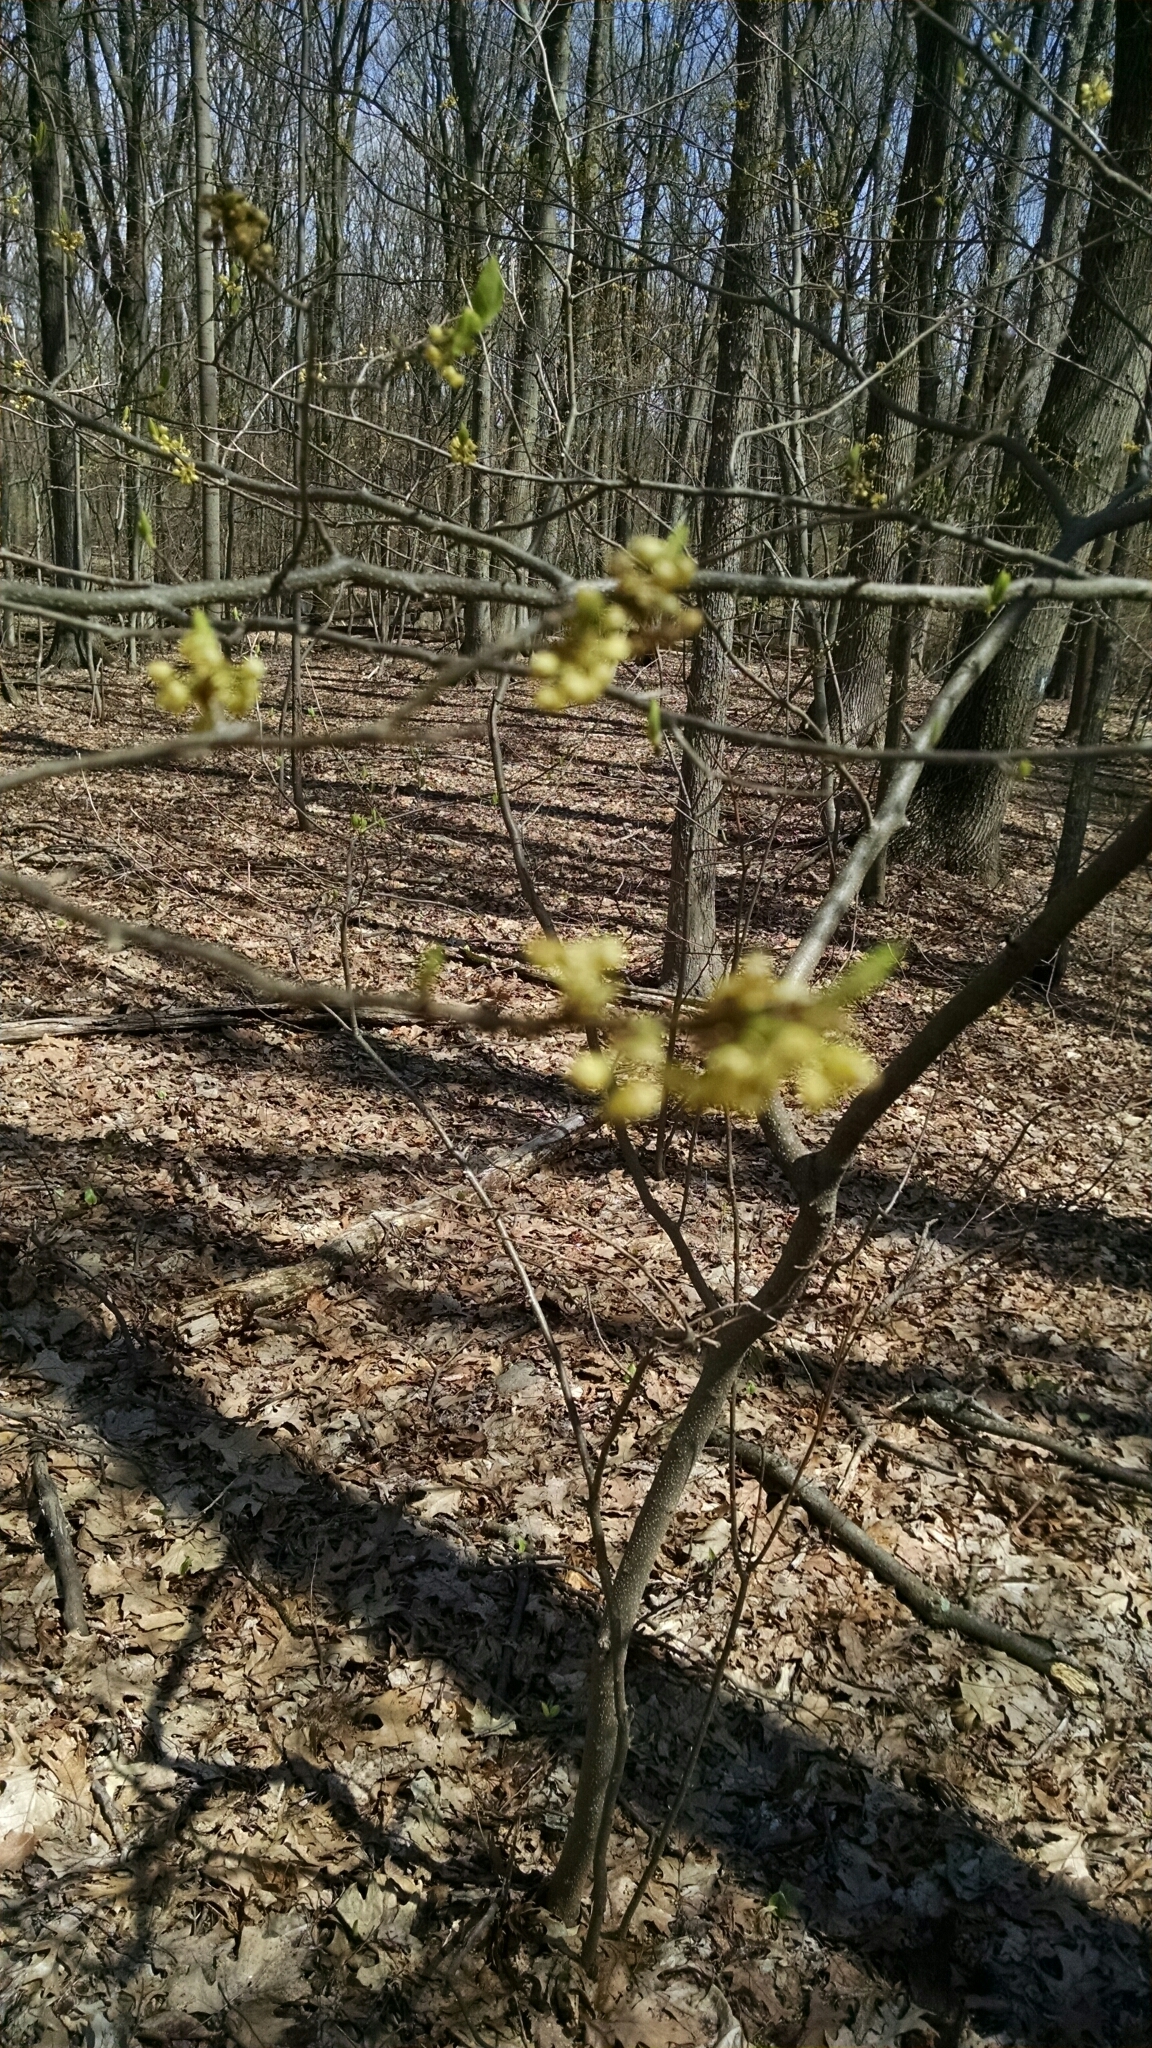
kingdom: Plantae
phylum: Tracheophyta
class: Magnoliopsida
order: Laurales
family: Lauraceae
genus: Lindera
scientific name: Lindera benzoin
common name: Spicebush
